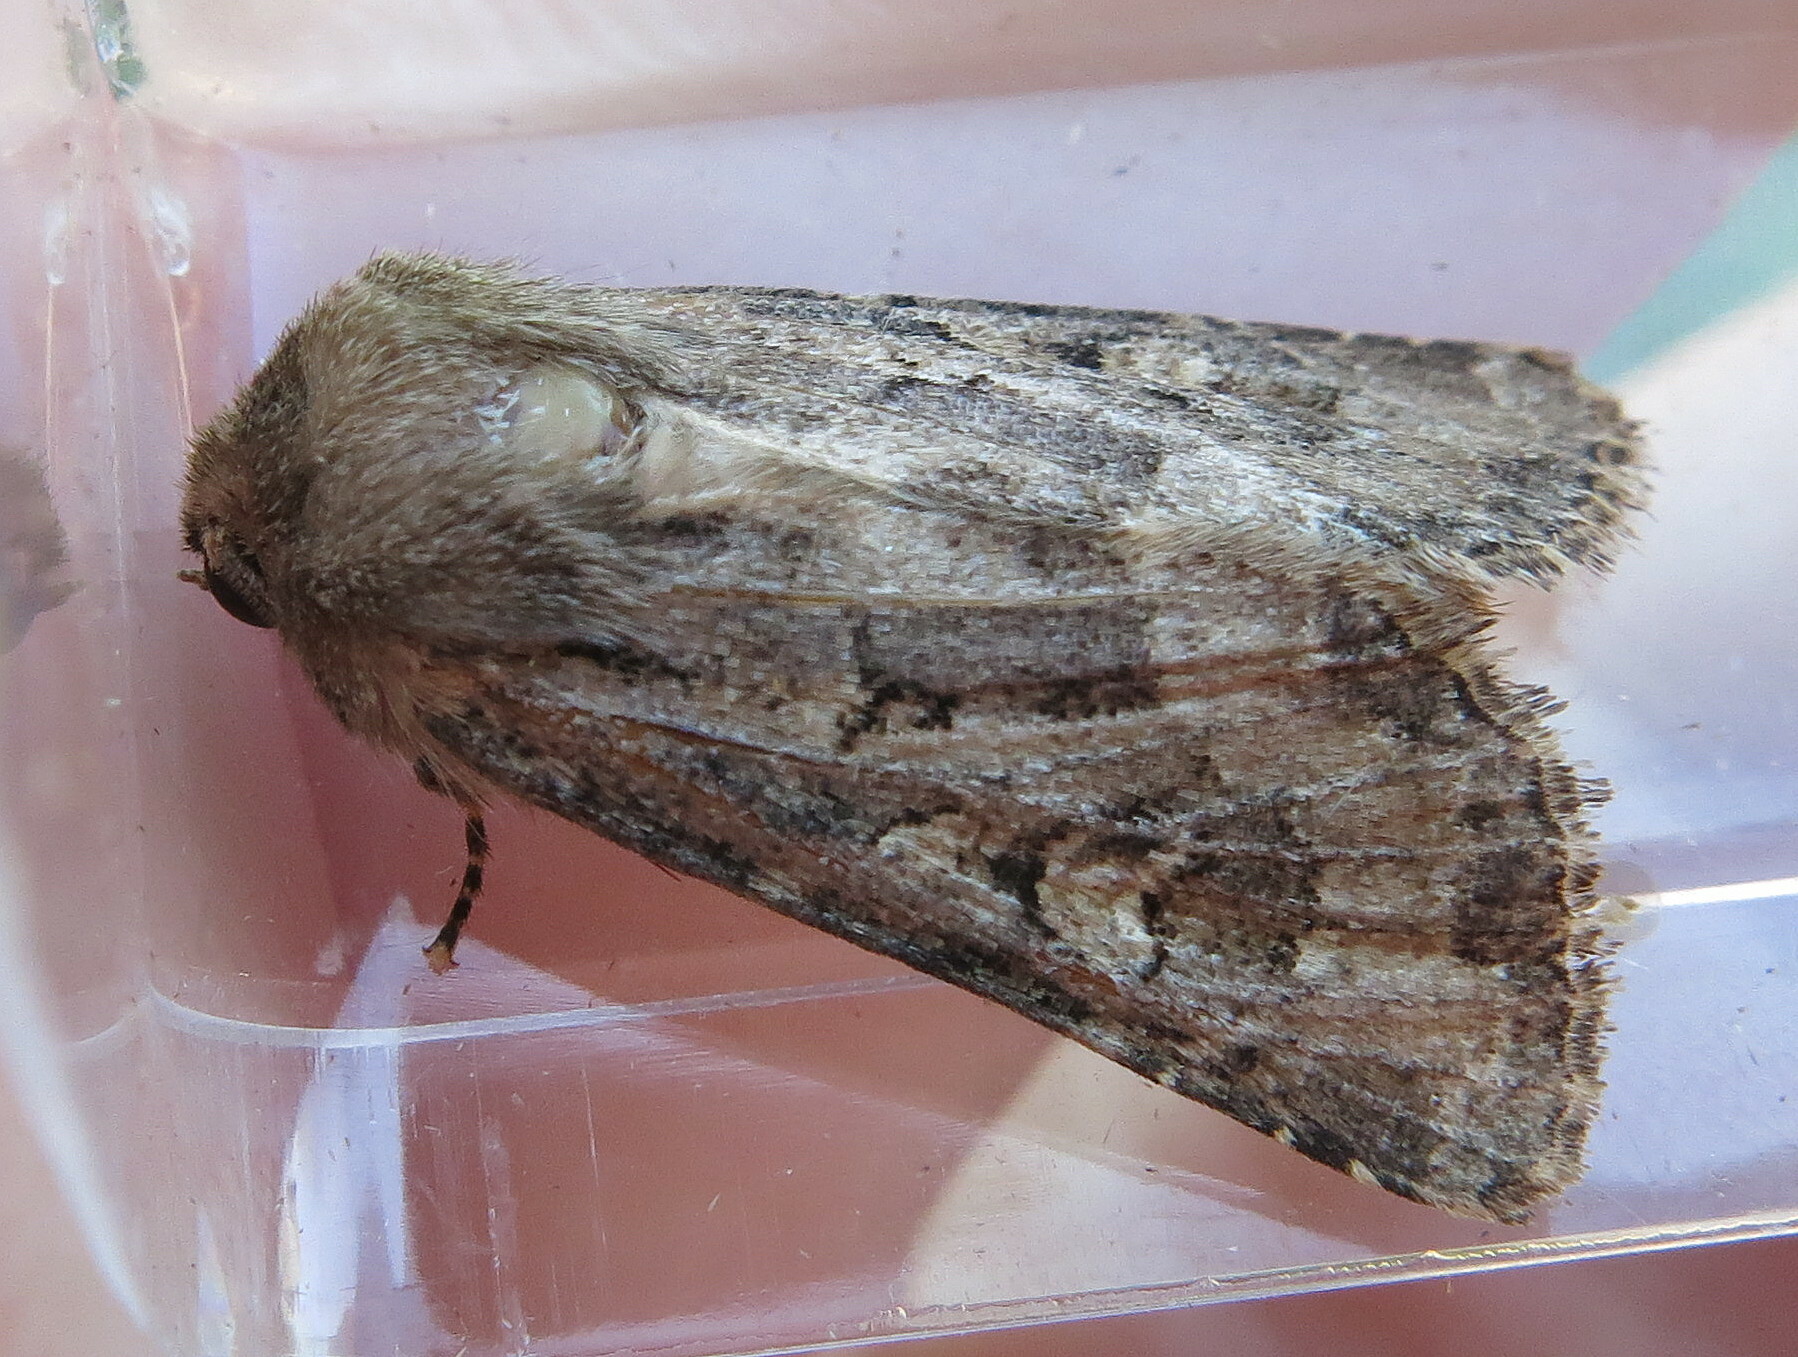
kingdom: Animalia
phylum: Arthropoda
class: Insecta
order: Lepidoptera
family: Noctuidae
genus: Luperina
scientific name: Luperina testacea
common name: Flounced rustic
